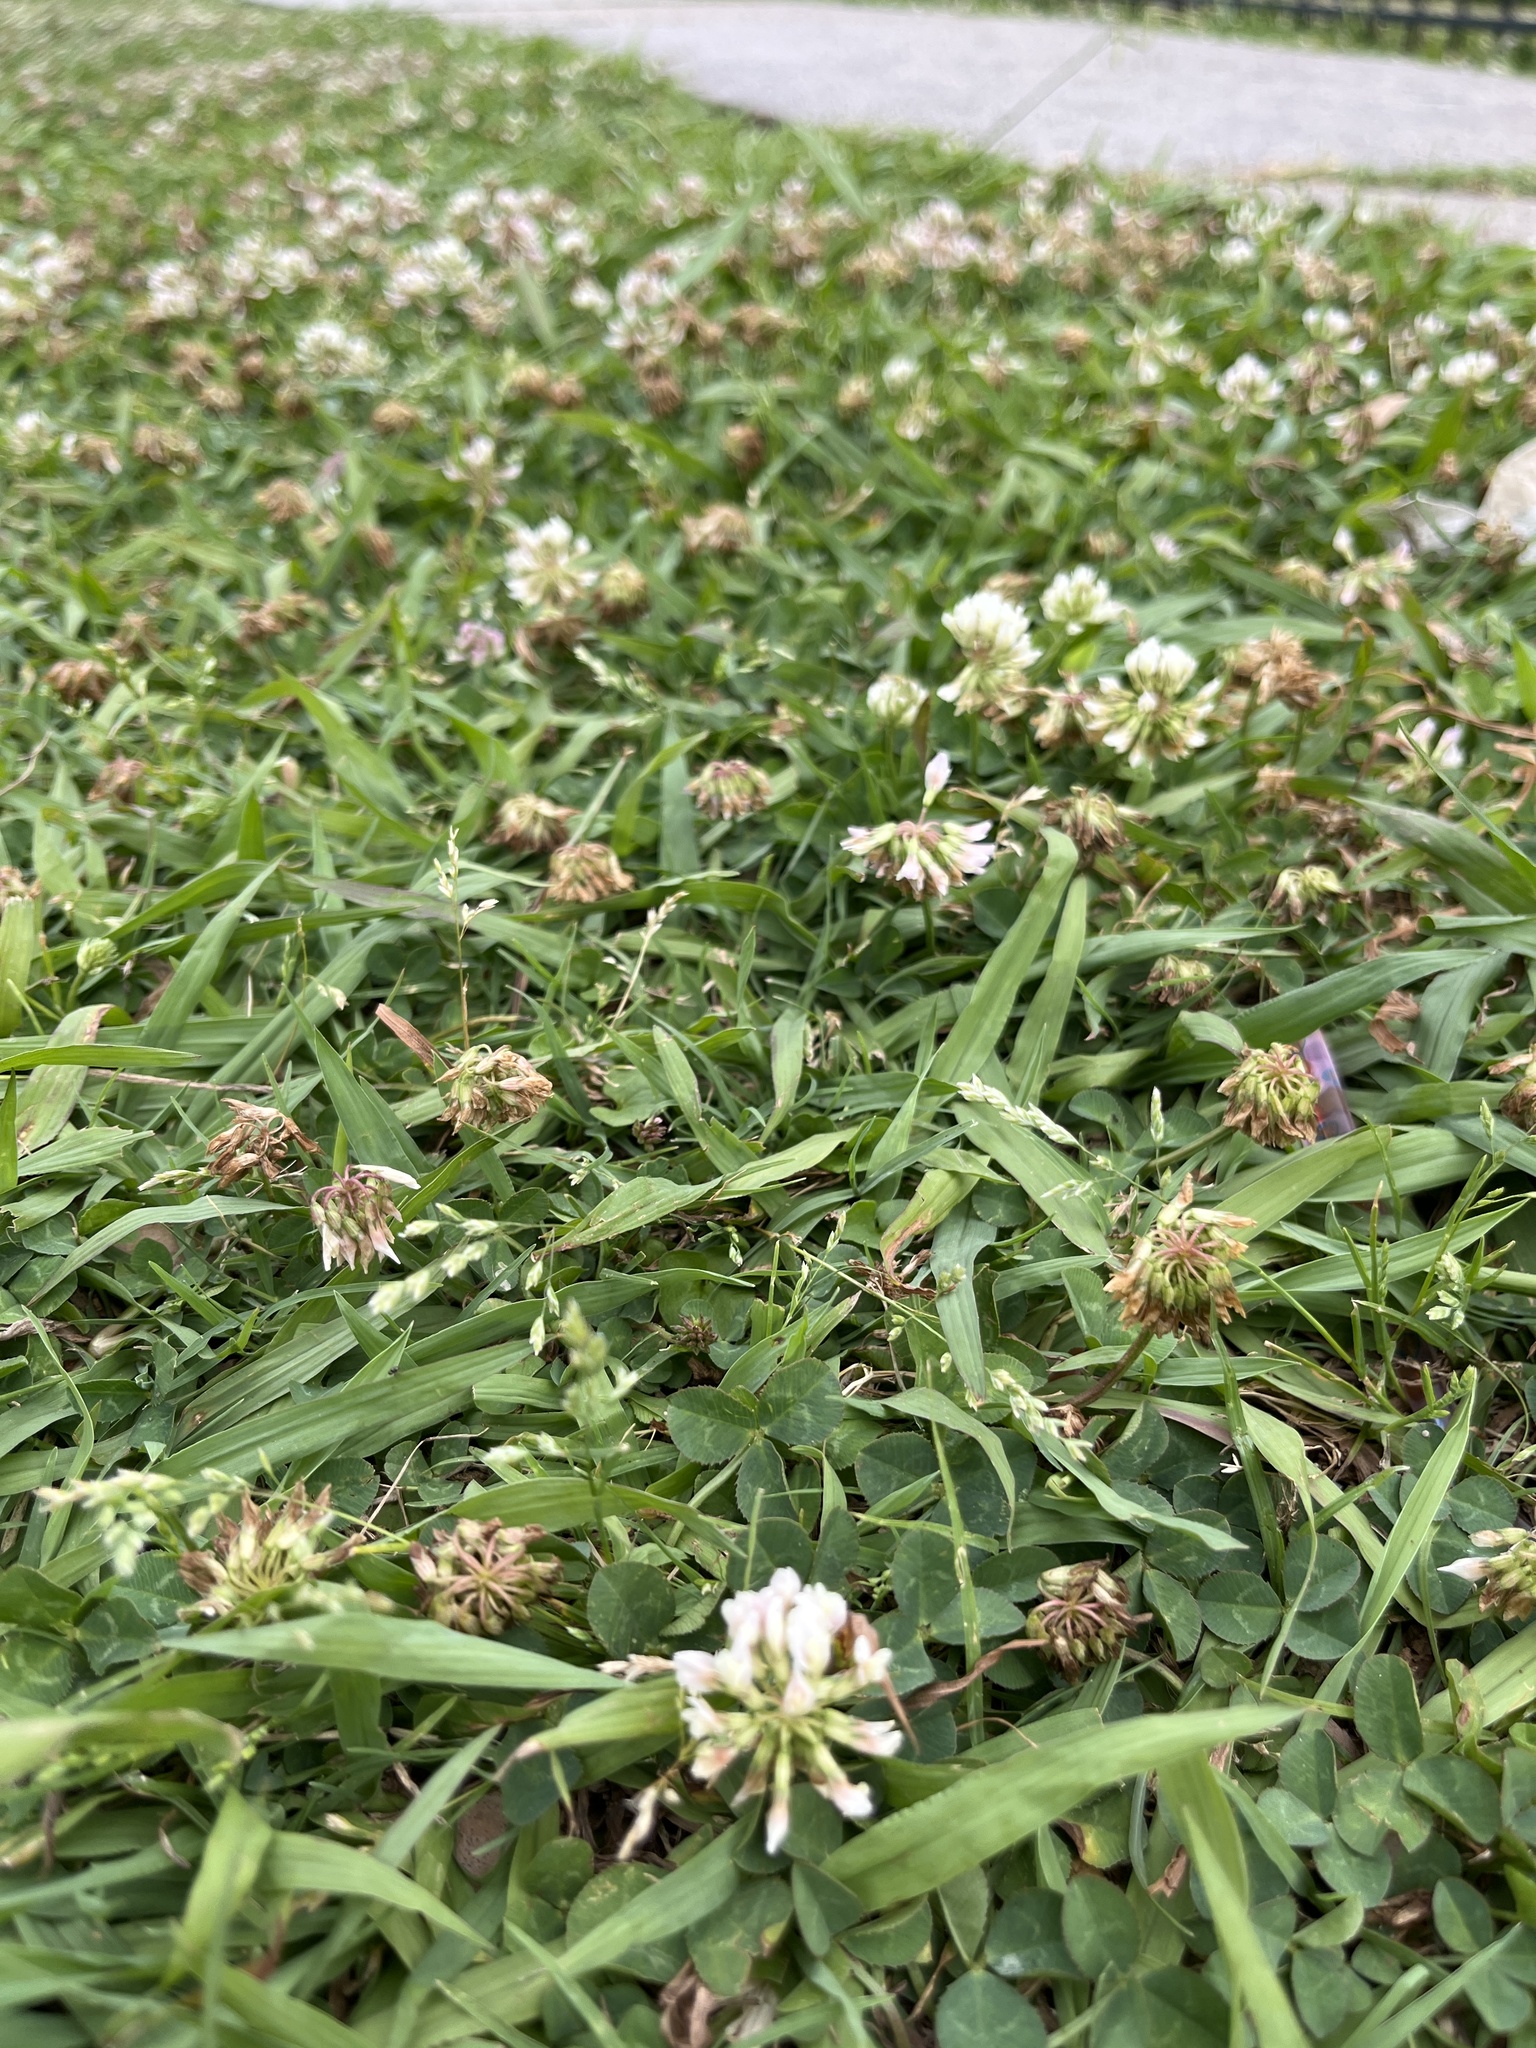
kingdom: Plantae
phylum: Tracheophyta
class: Magnoliopsida
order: Fabales
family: Fabaceae
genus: Trifolium
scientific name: Trifolium repens
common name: White clover
